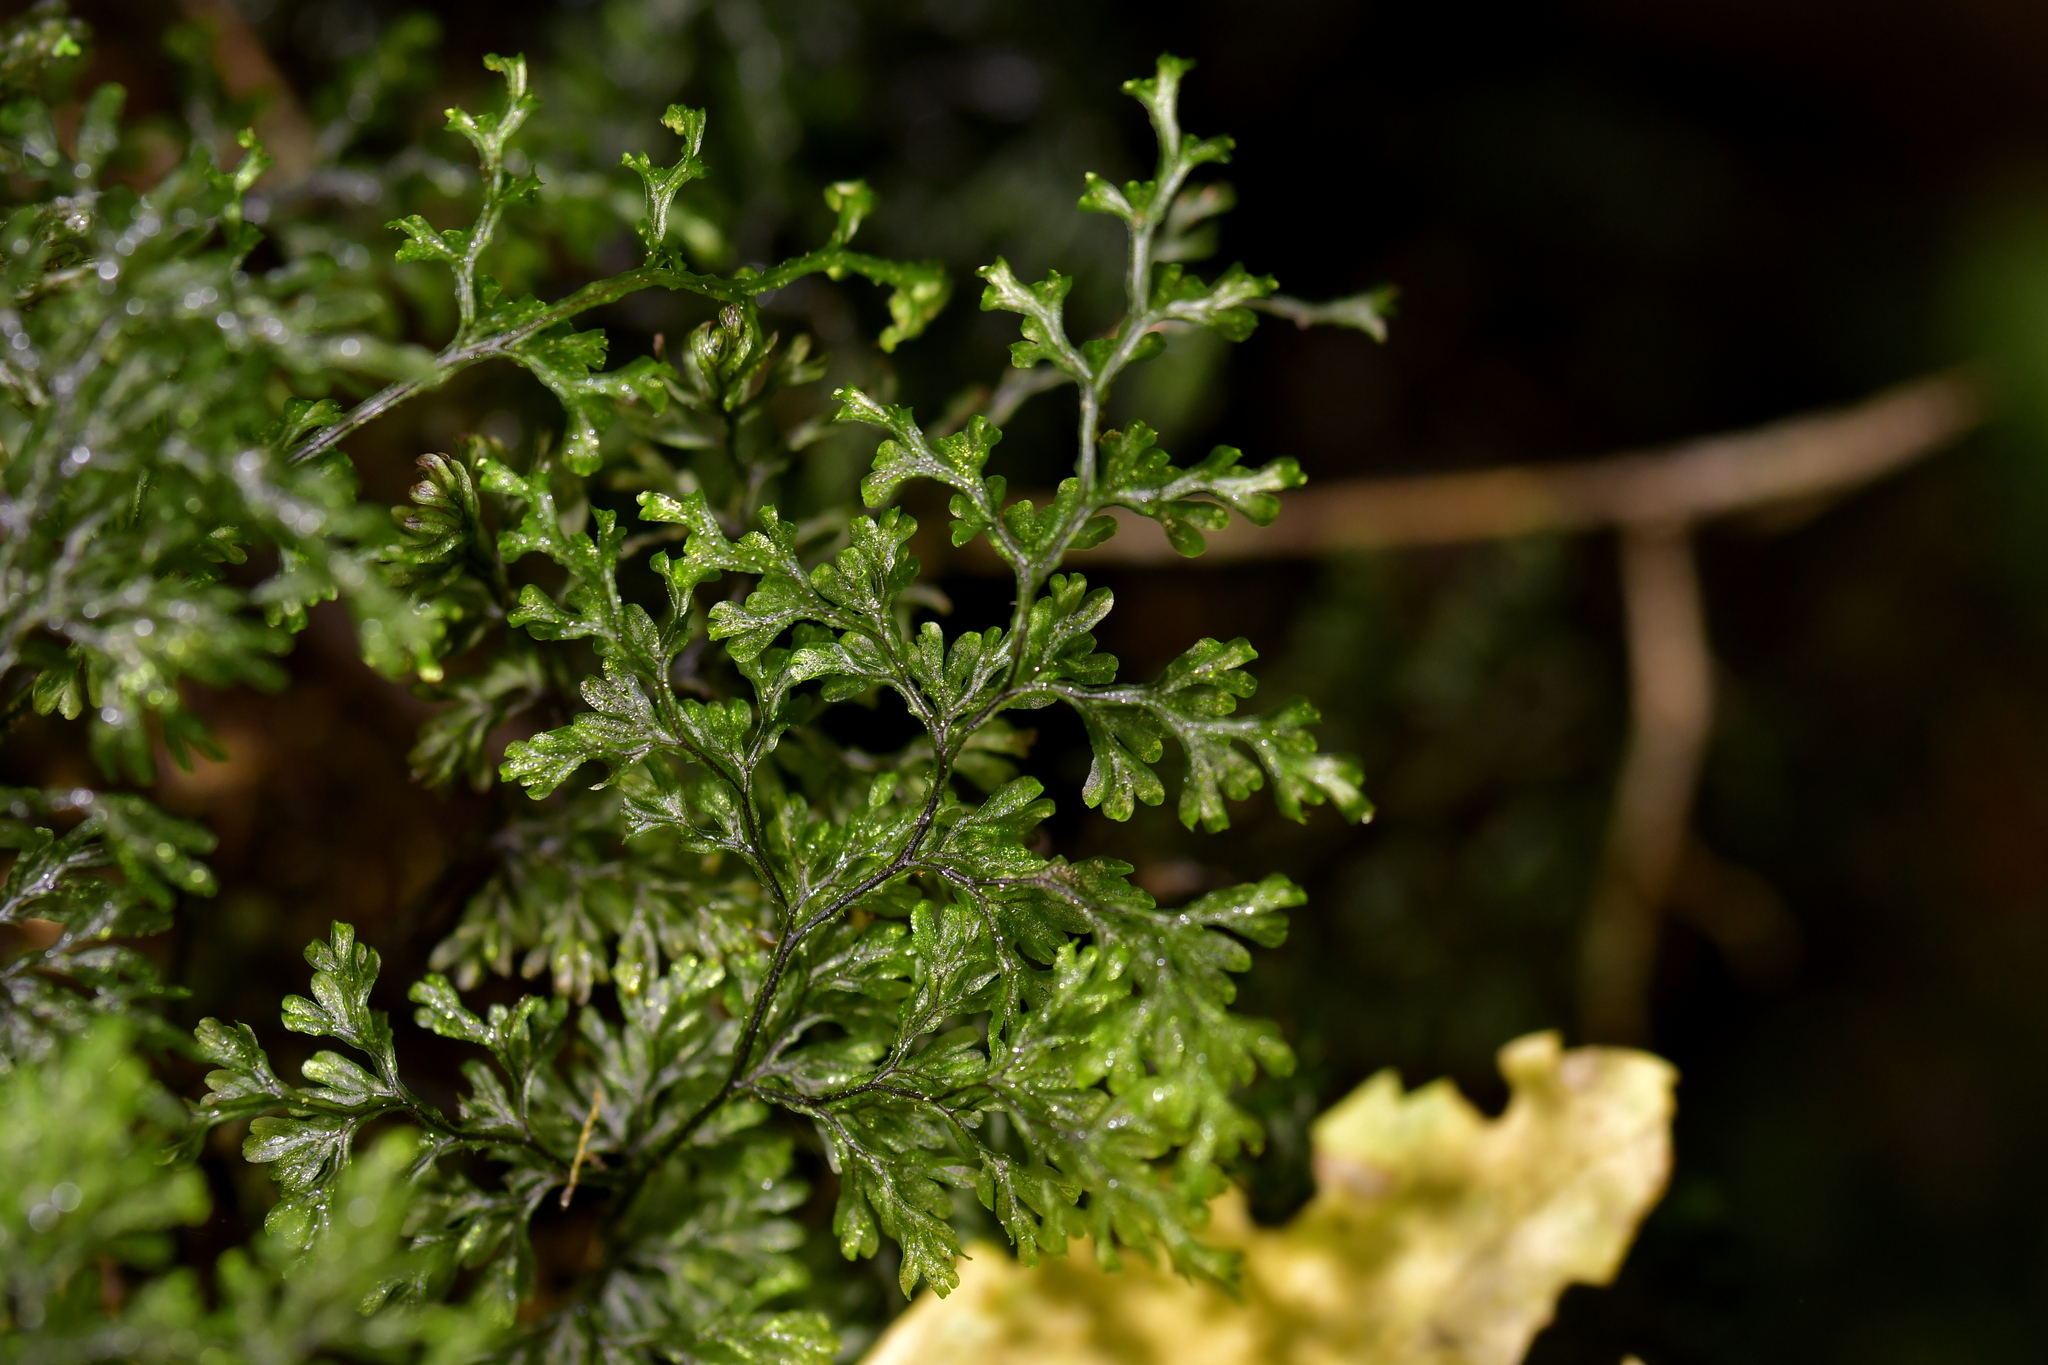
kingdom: Plantae
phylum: Tracheophyta
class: Polypodiopsida
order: Hymenophyllales
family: Hymenophyllaceae
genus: Hymenophyllum
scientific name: Hymenophyllum villosum
